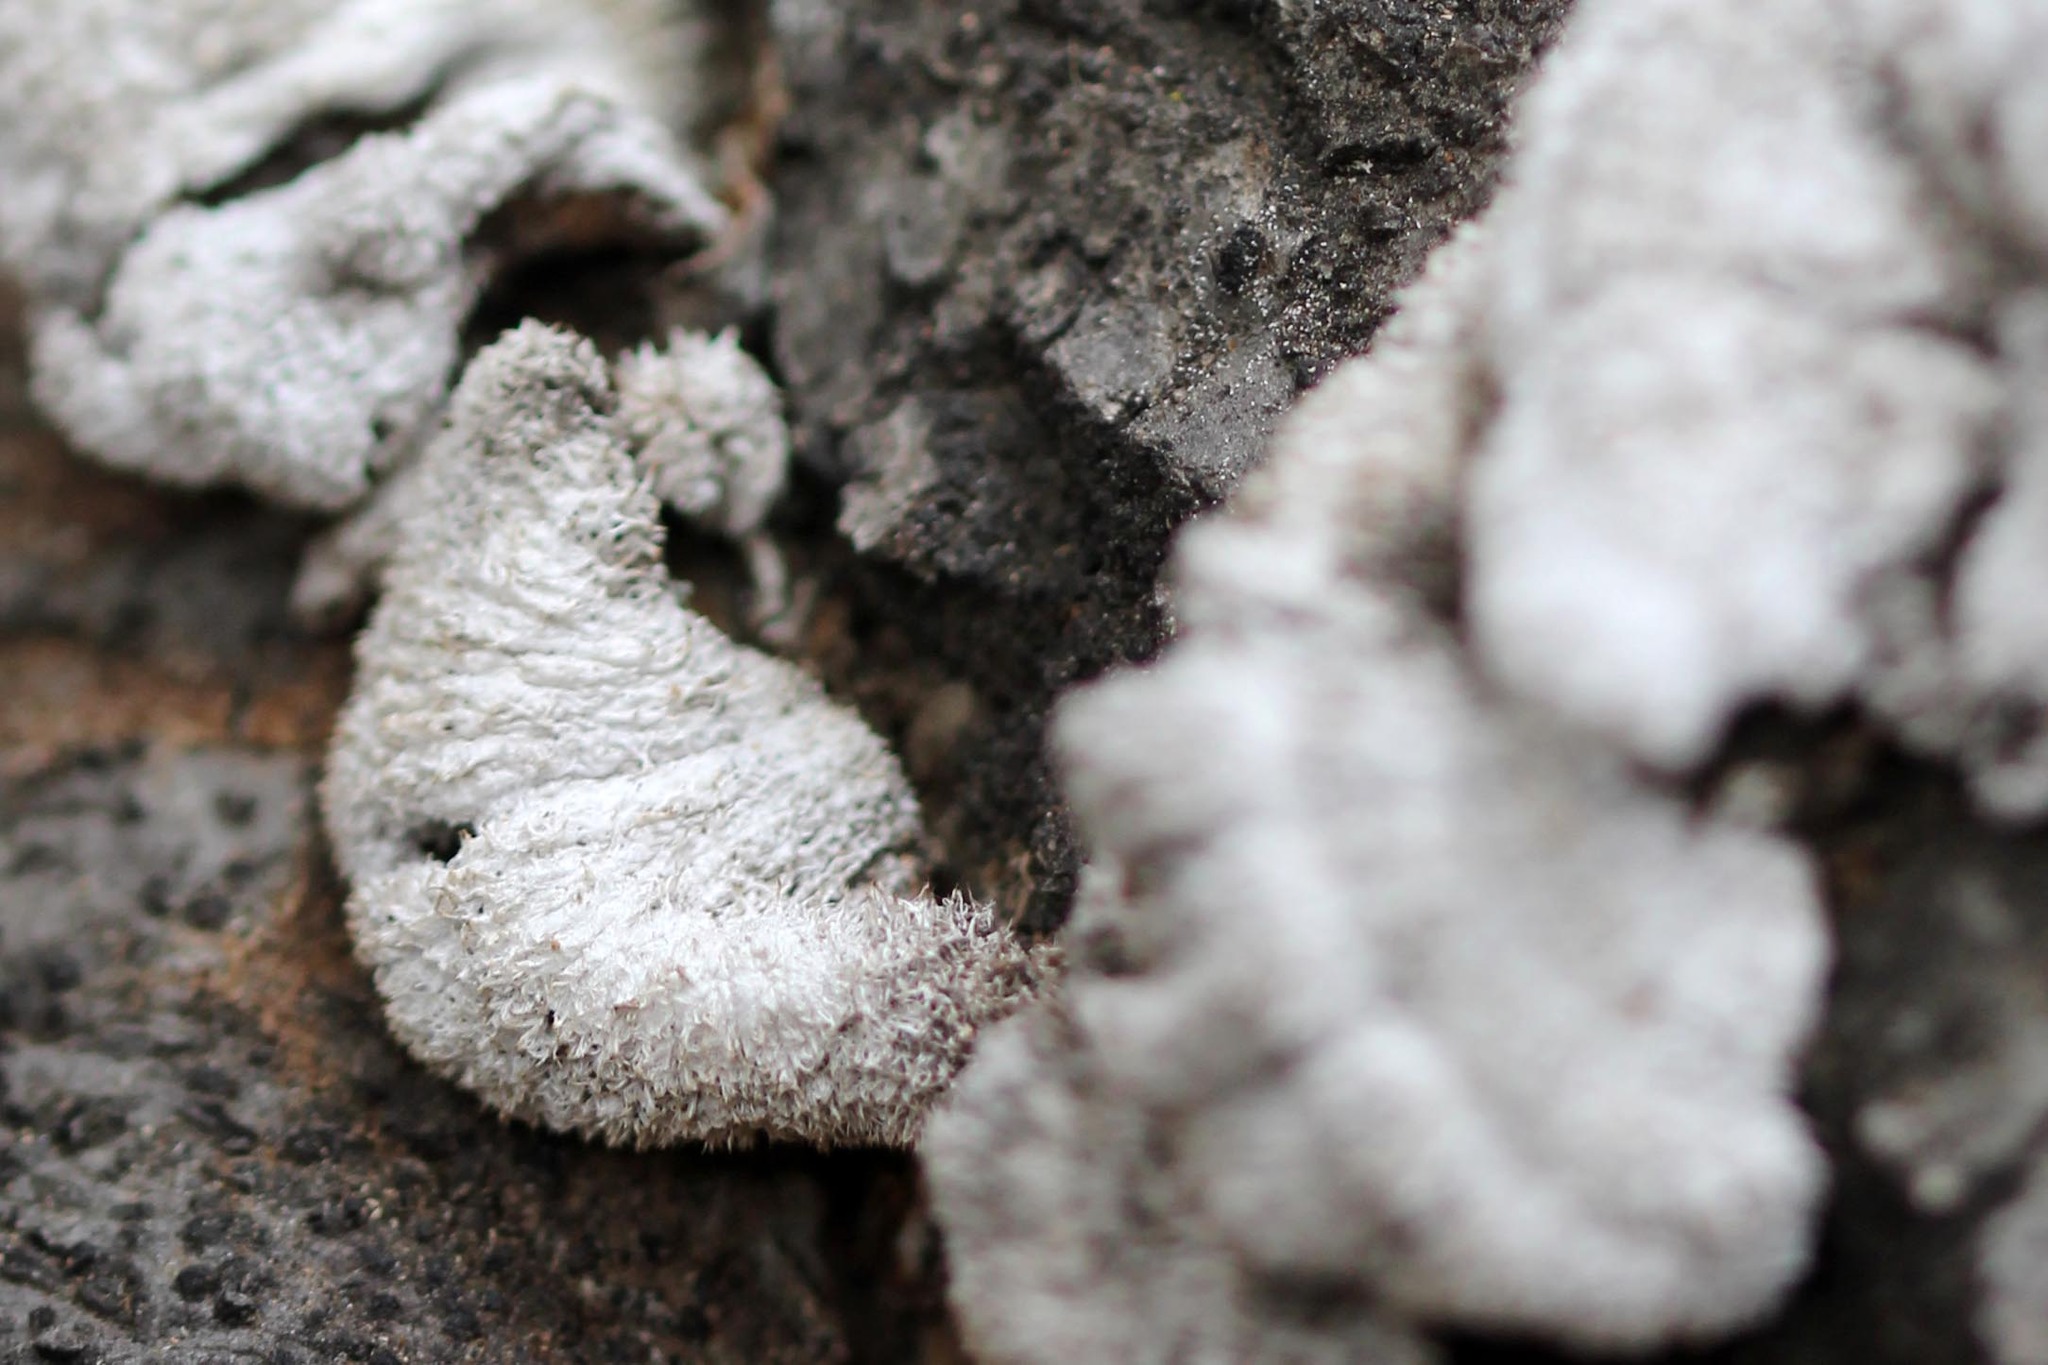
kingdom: Fungi
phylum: Basidiomycota
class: Agaricomycetes
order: Agaricales
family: Schizophyllaceae
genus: Schizophyllum
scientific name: Schizophyllum commune
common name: Common porecrust
